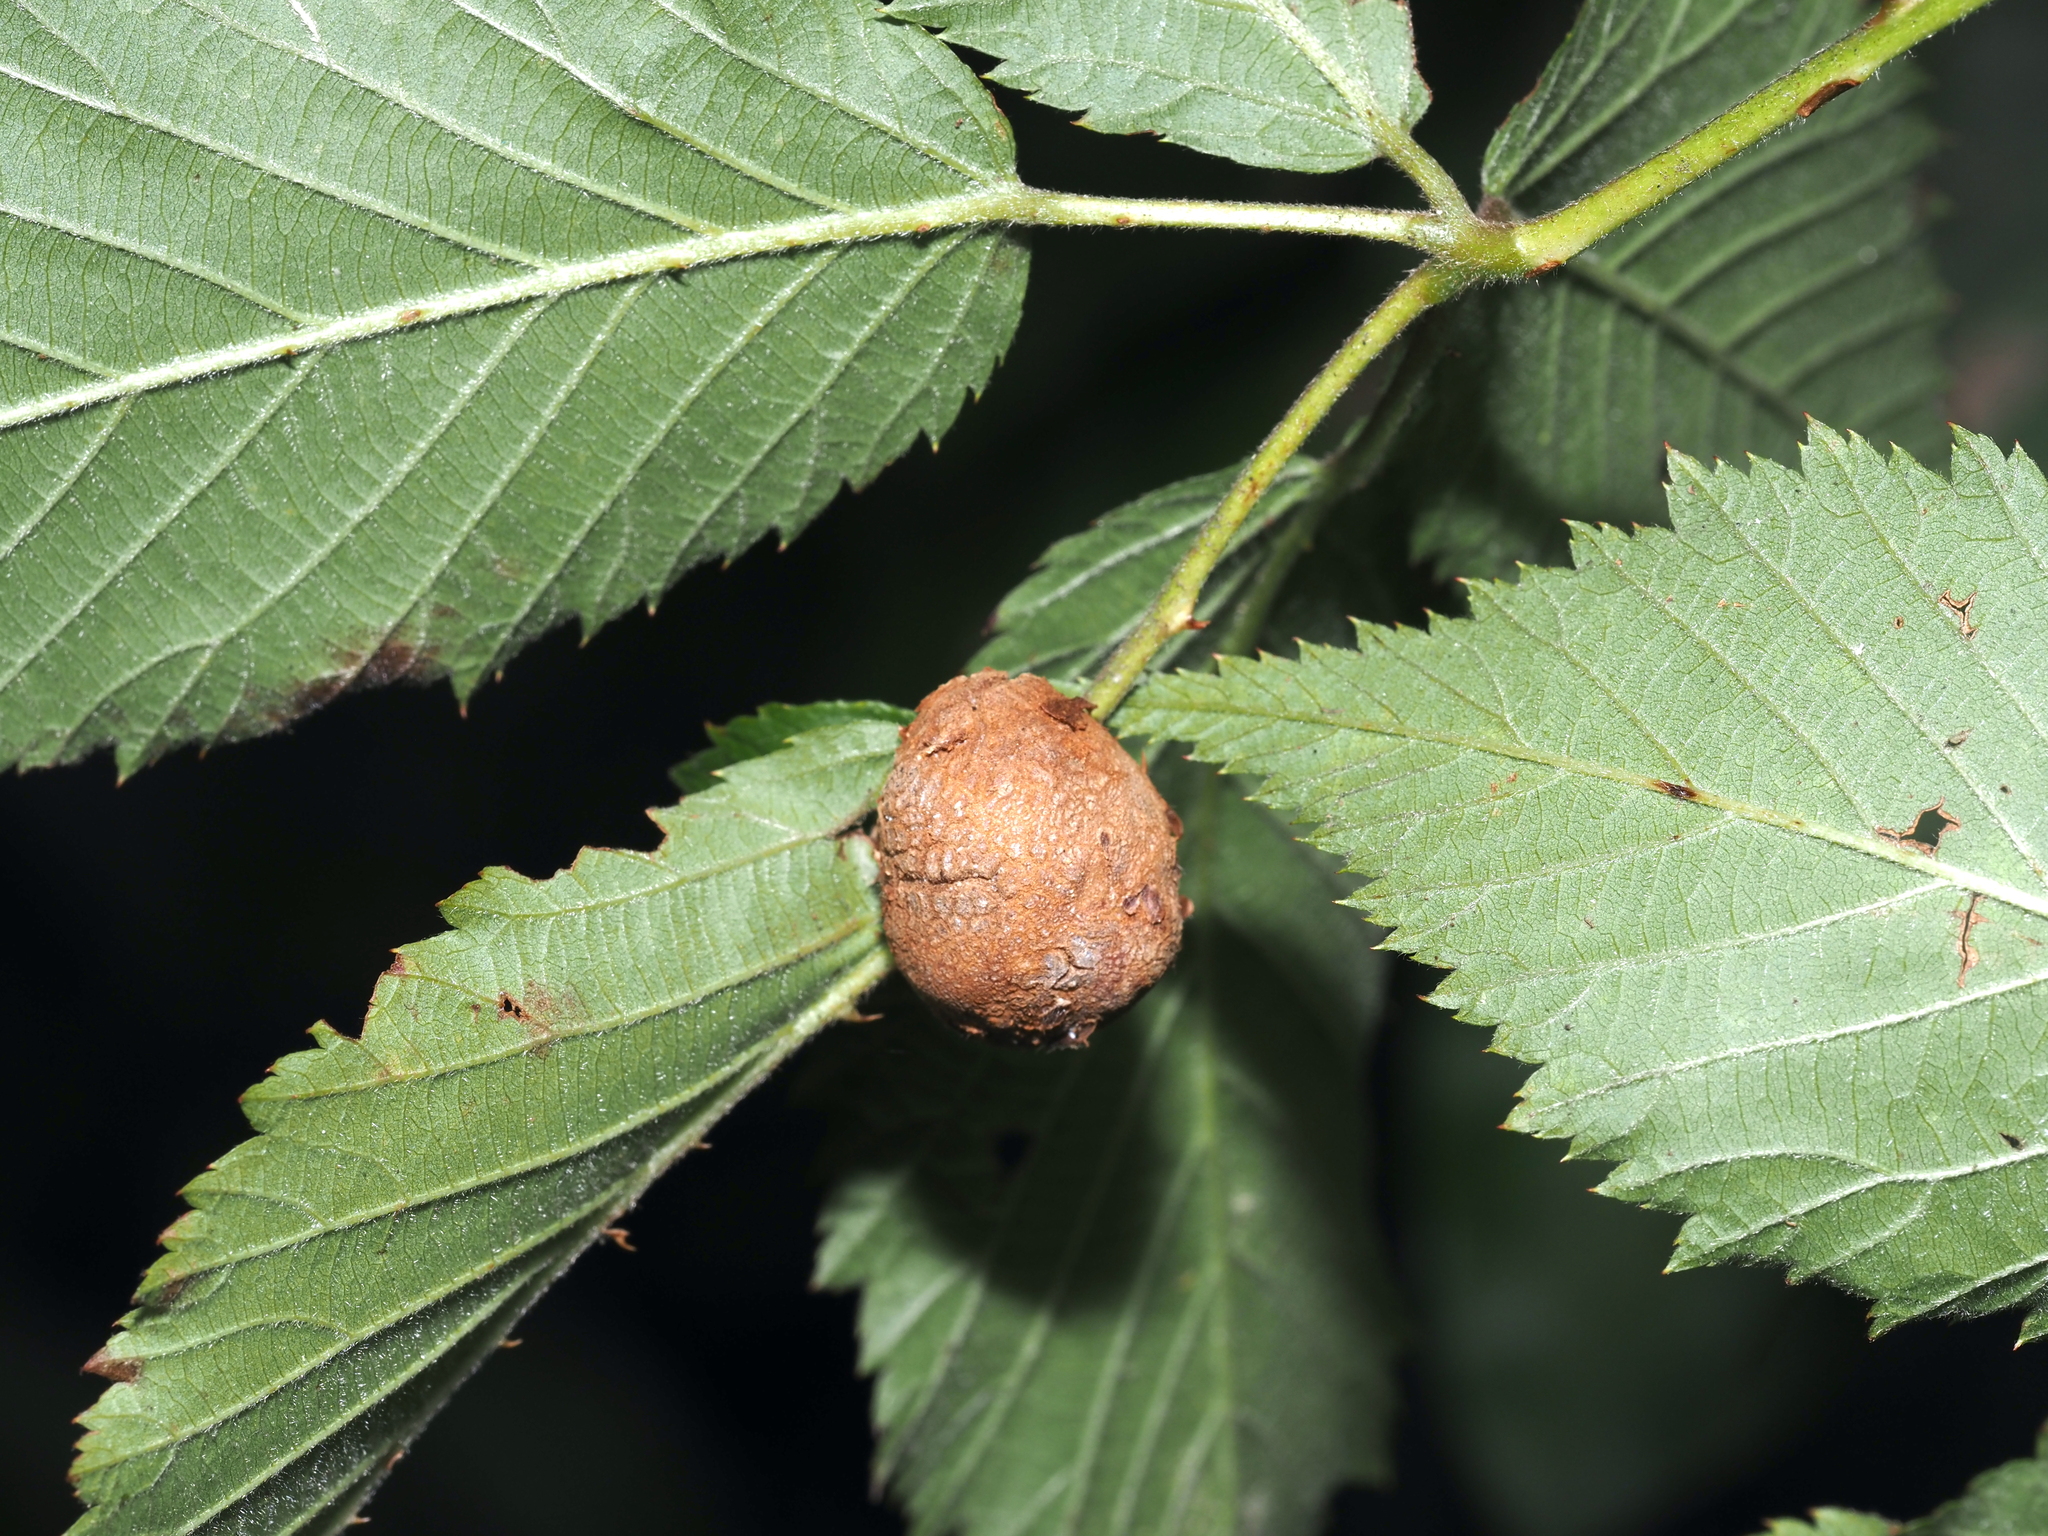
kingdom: Animalia
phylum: Arthropoda
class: Insecta
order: Diptera
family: Cecidomyiidae
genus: Neolasioptera
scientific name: Neolasioptera farinosa
